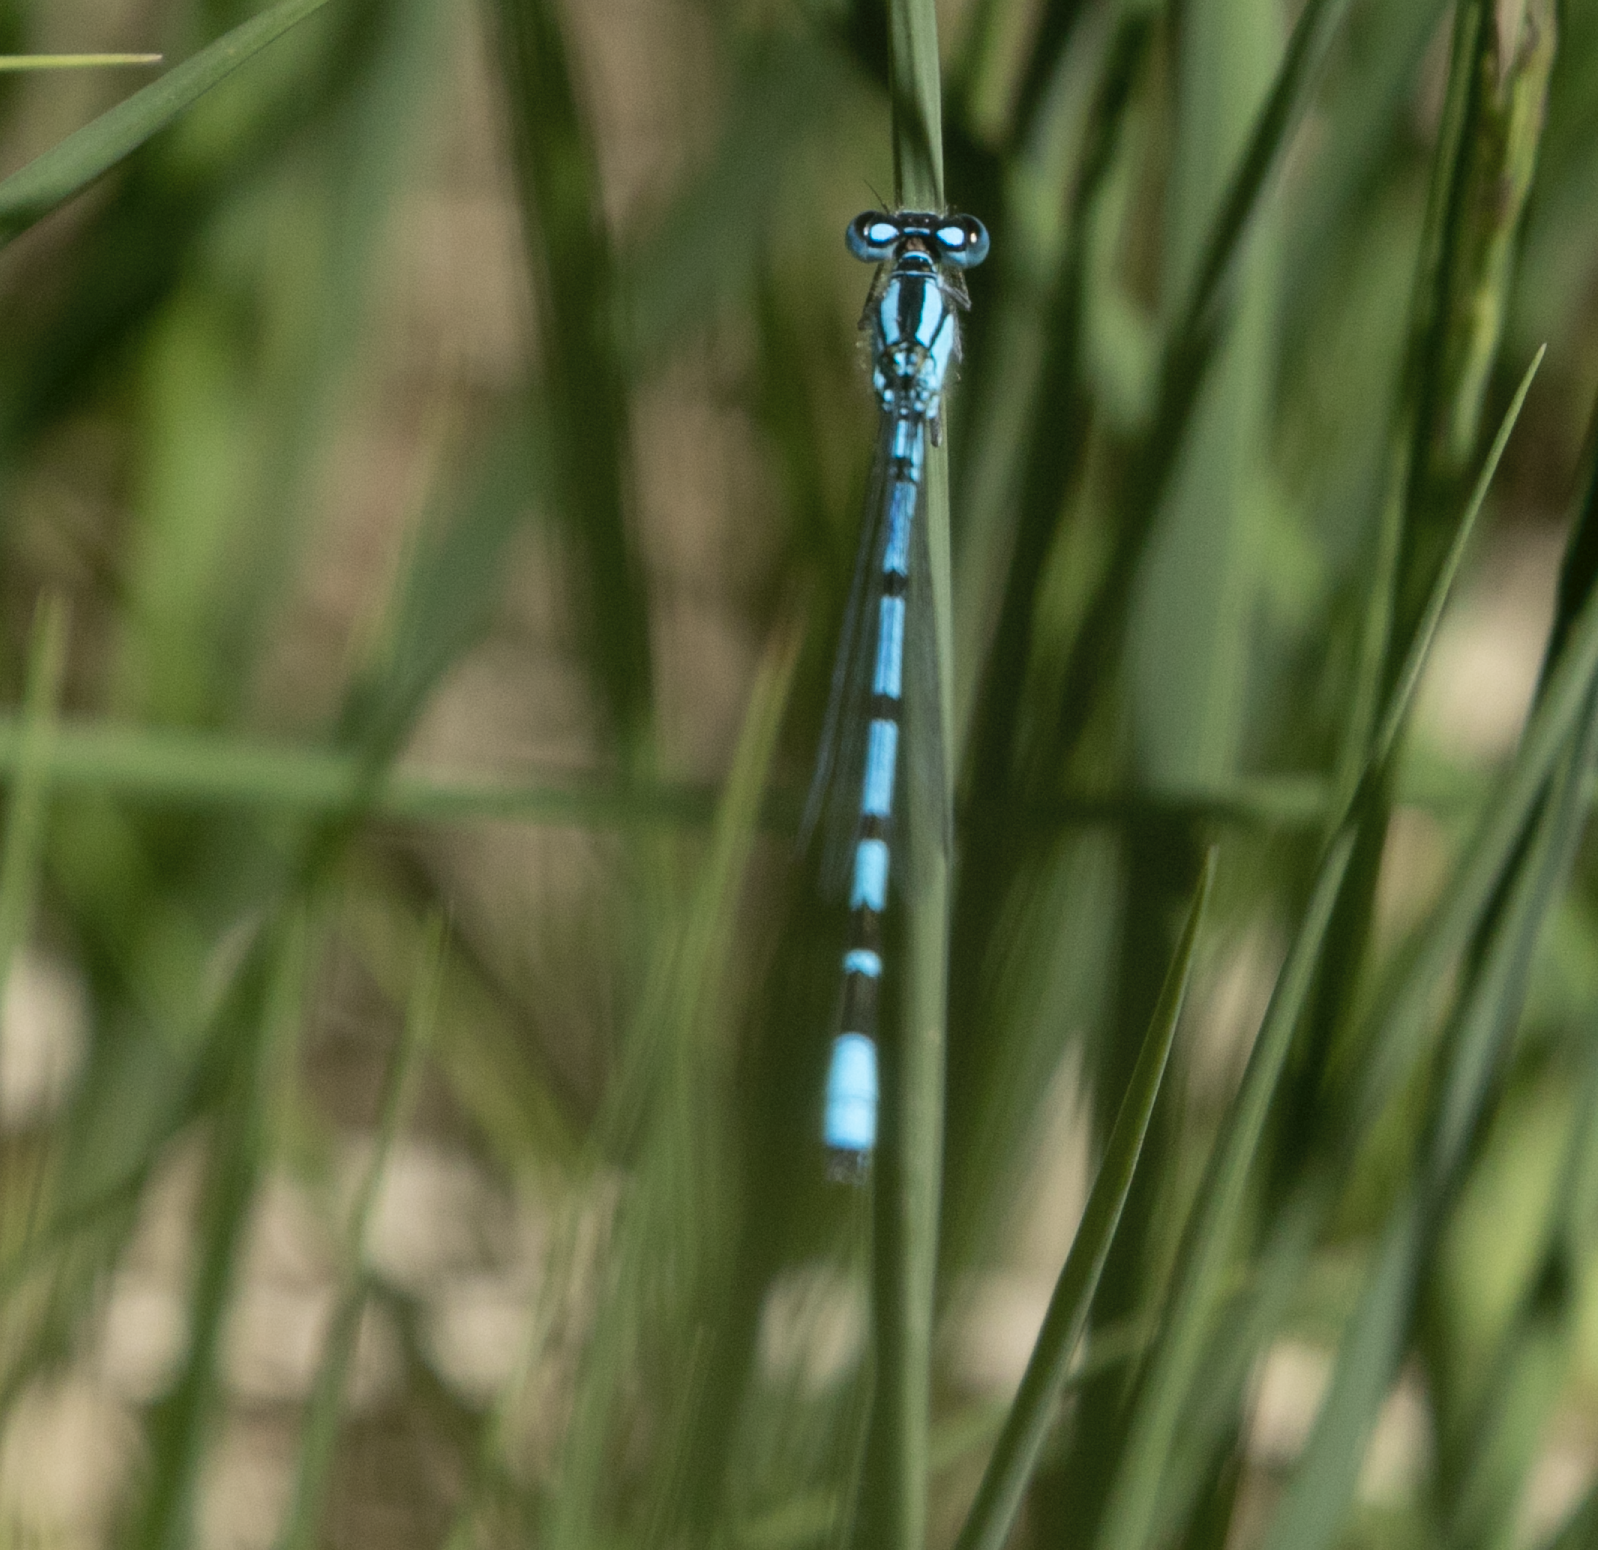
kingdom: Animalia
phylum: Arthropoda
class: Insecta
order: Odonata
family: Coenagrionidae
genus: Enallagma
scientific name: Enallagma cyathigerum
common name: Common blue damselfly
